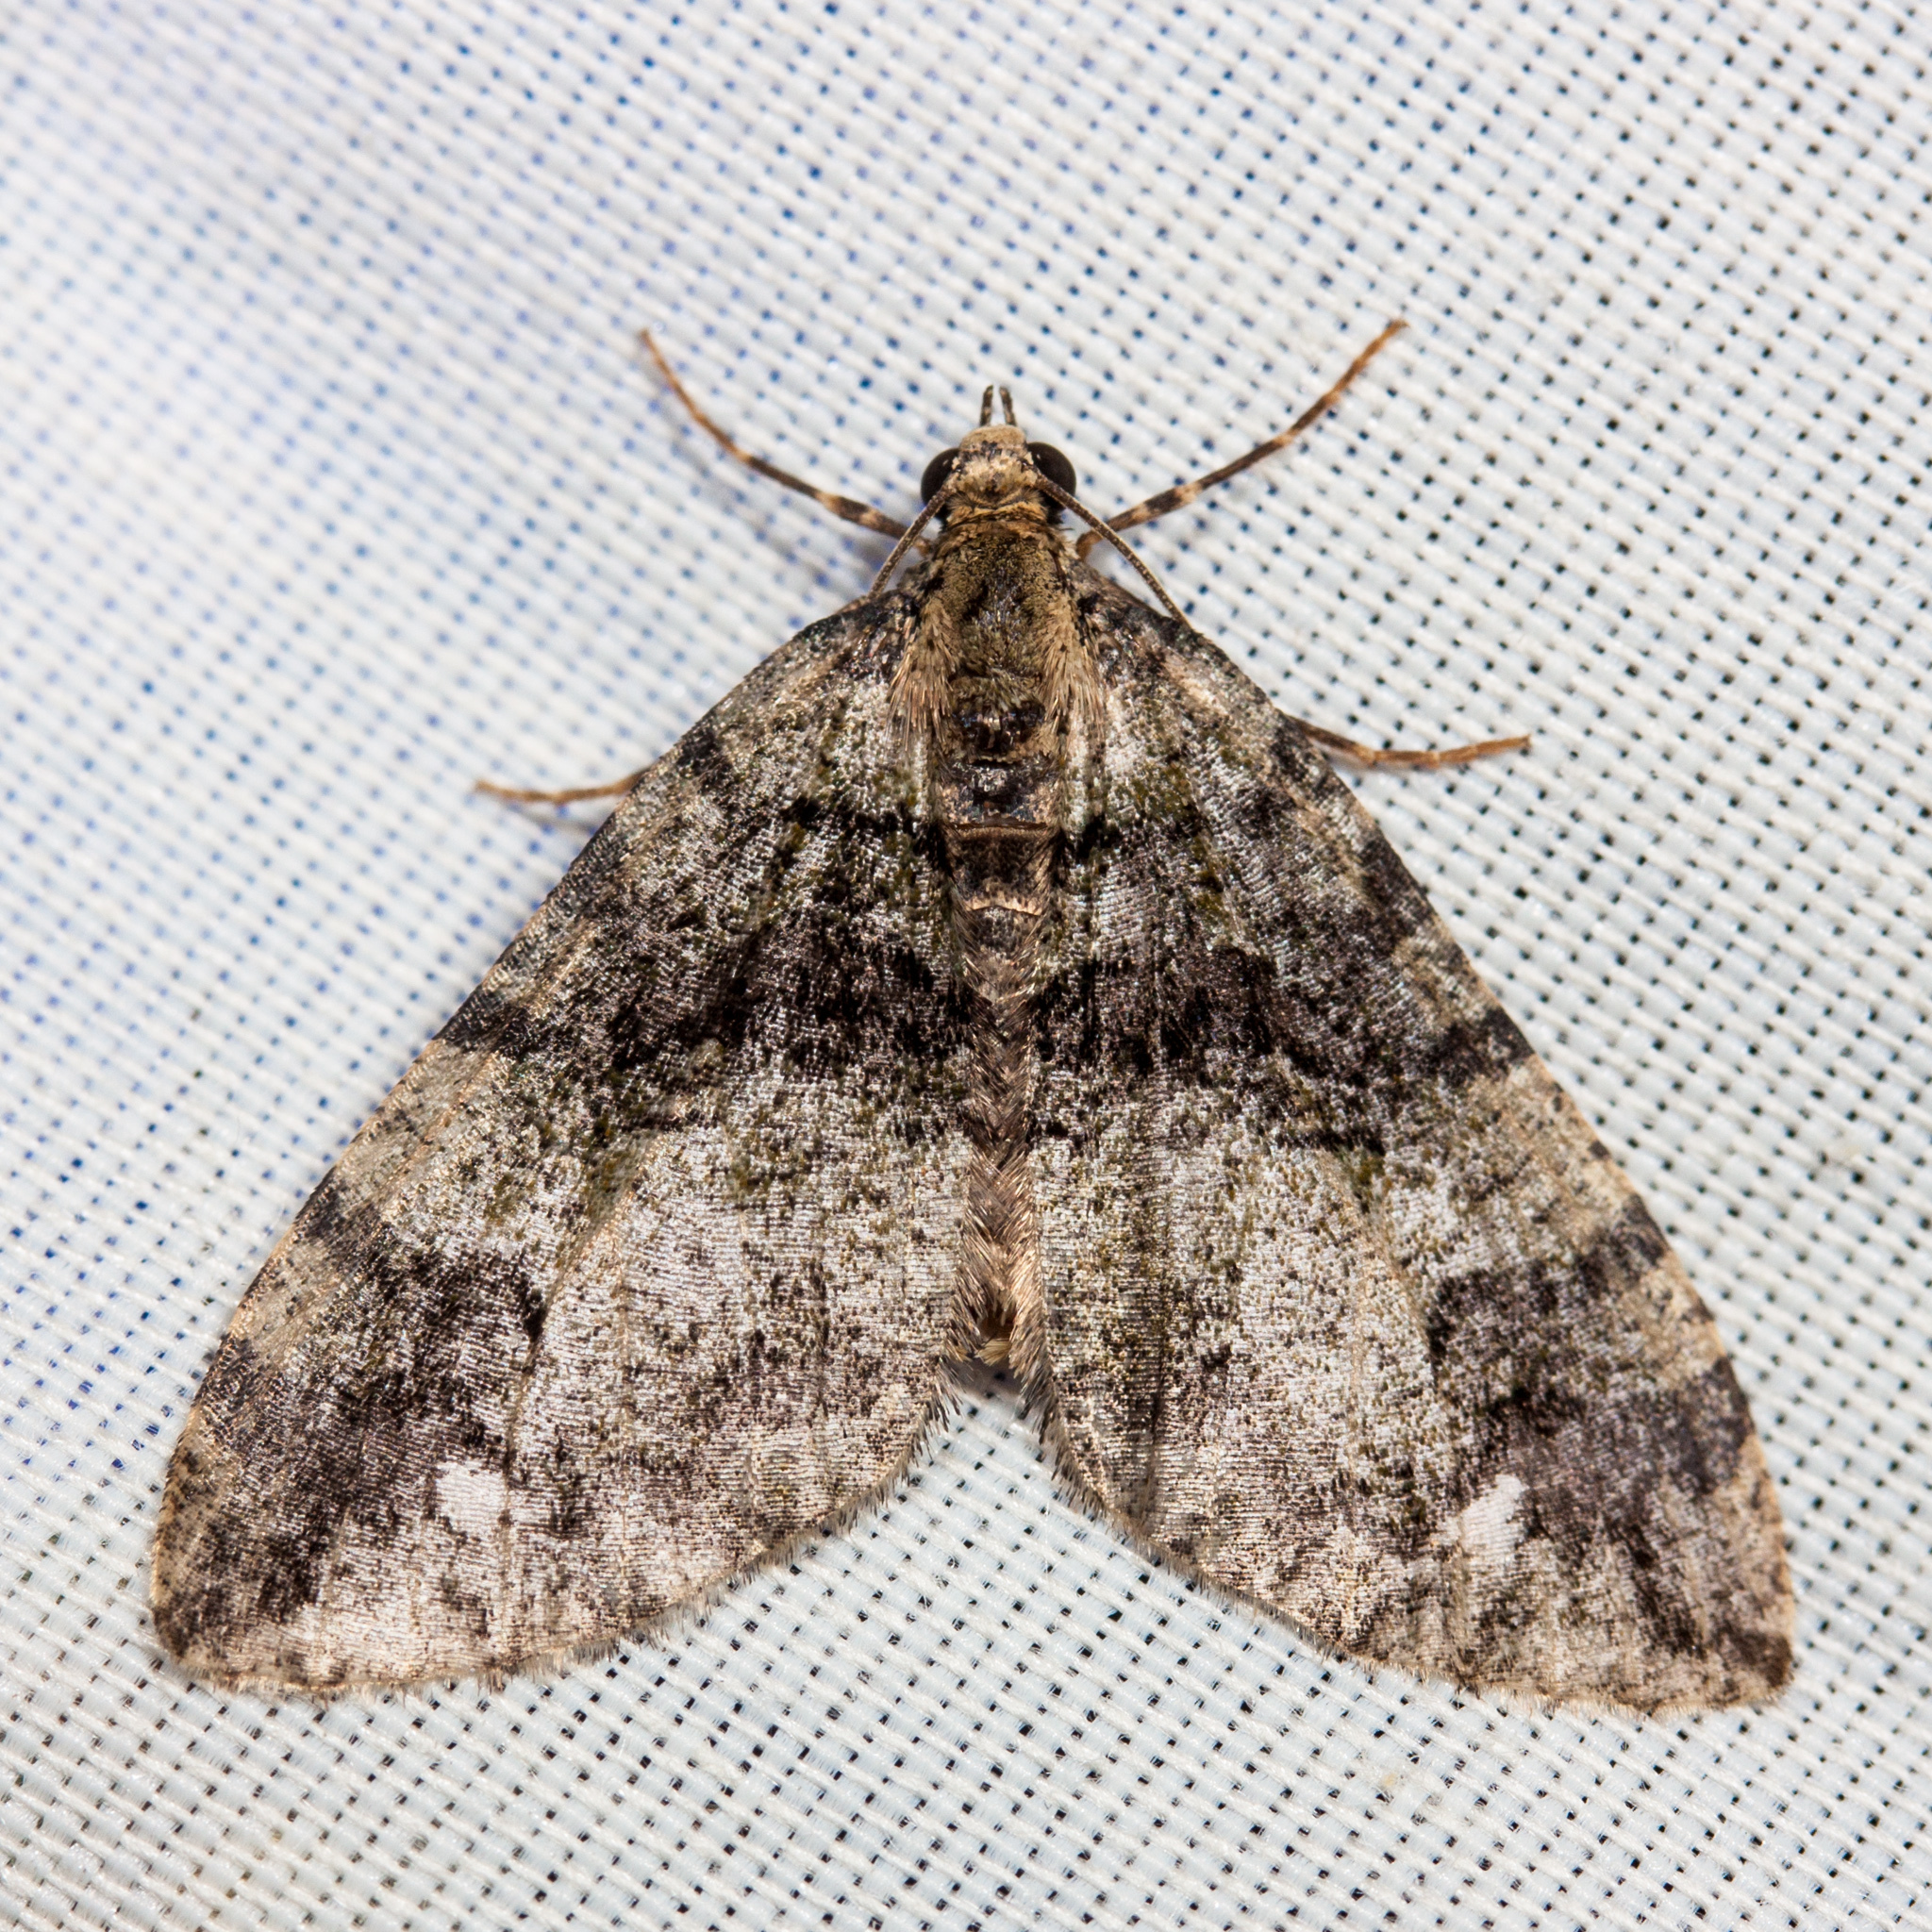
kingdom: Animalia
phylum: Arthropoda
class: Insecta
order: Lepidoptera
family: Geometridae
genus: Hydriomena
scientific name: Hydriomena albifasciata
